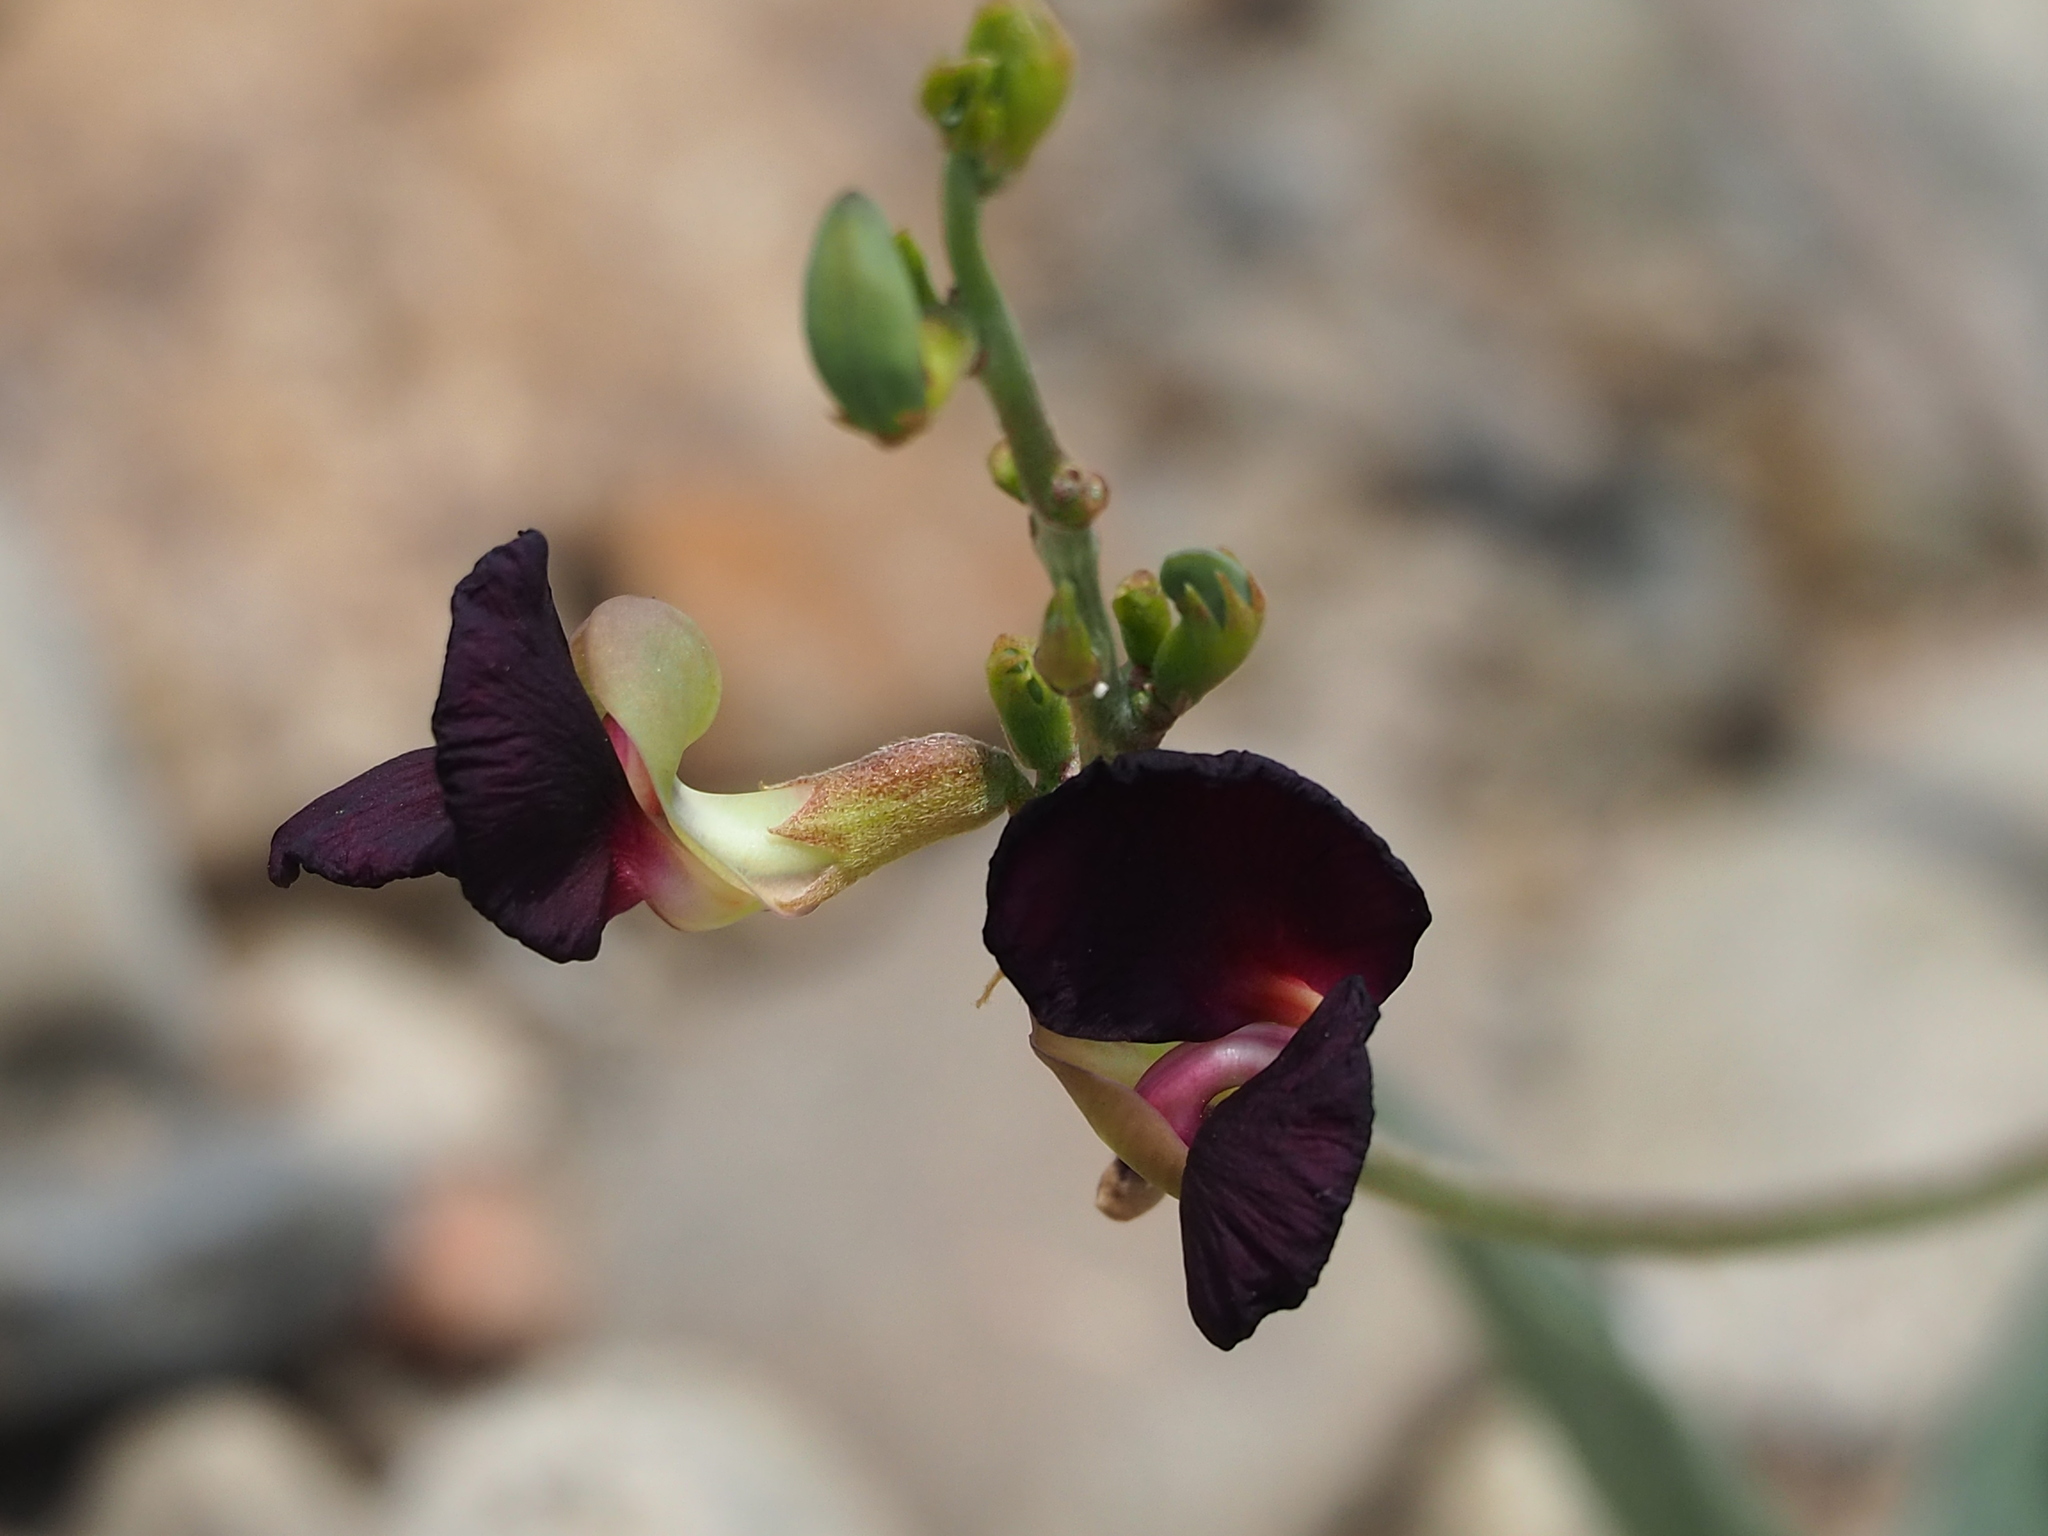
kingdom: Plantae
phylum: Tracheophyta
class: Magnoliopsida
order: Fabales
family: Fabaceae
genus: Macroptilium
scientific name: Macroptilium atropurpureum
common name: Purple bushbean
